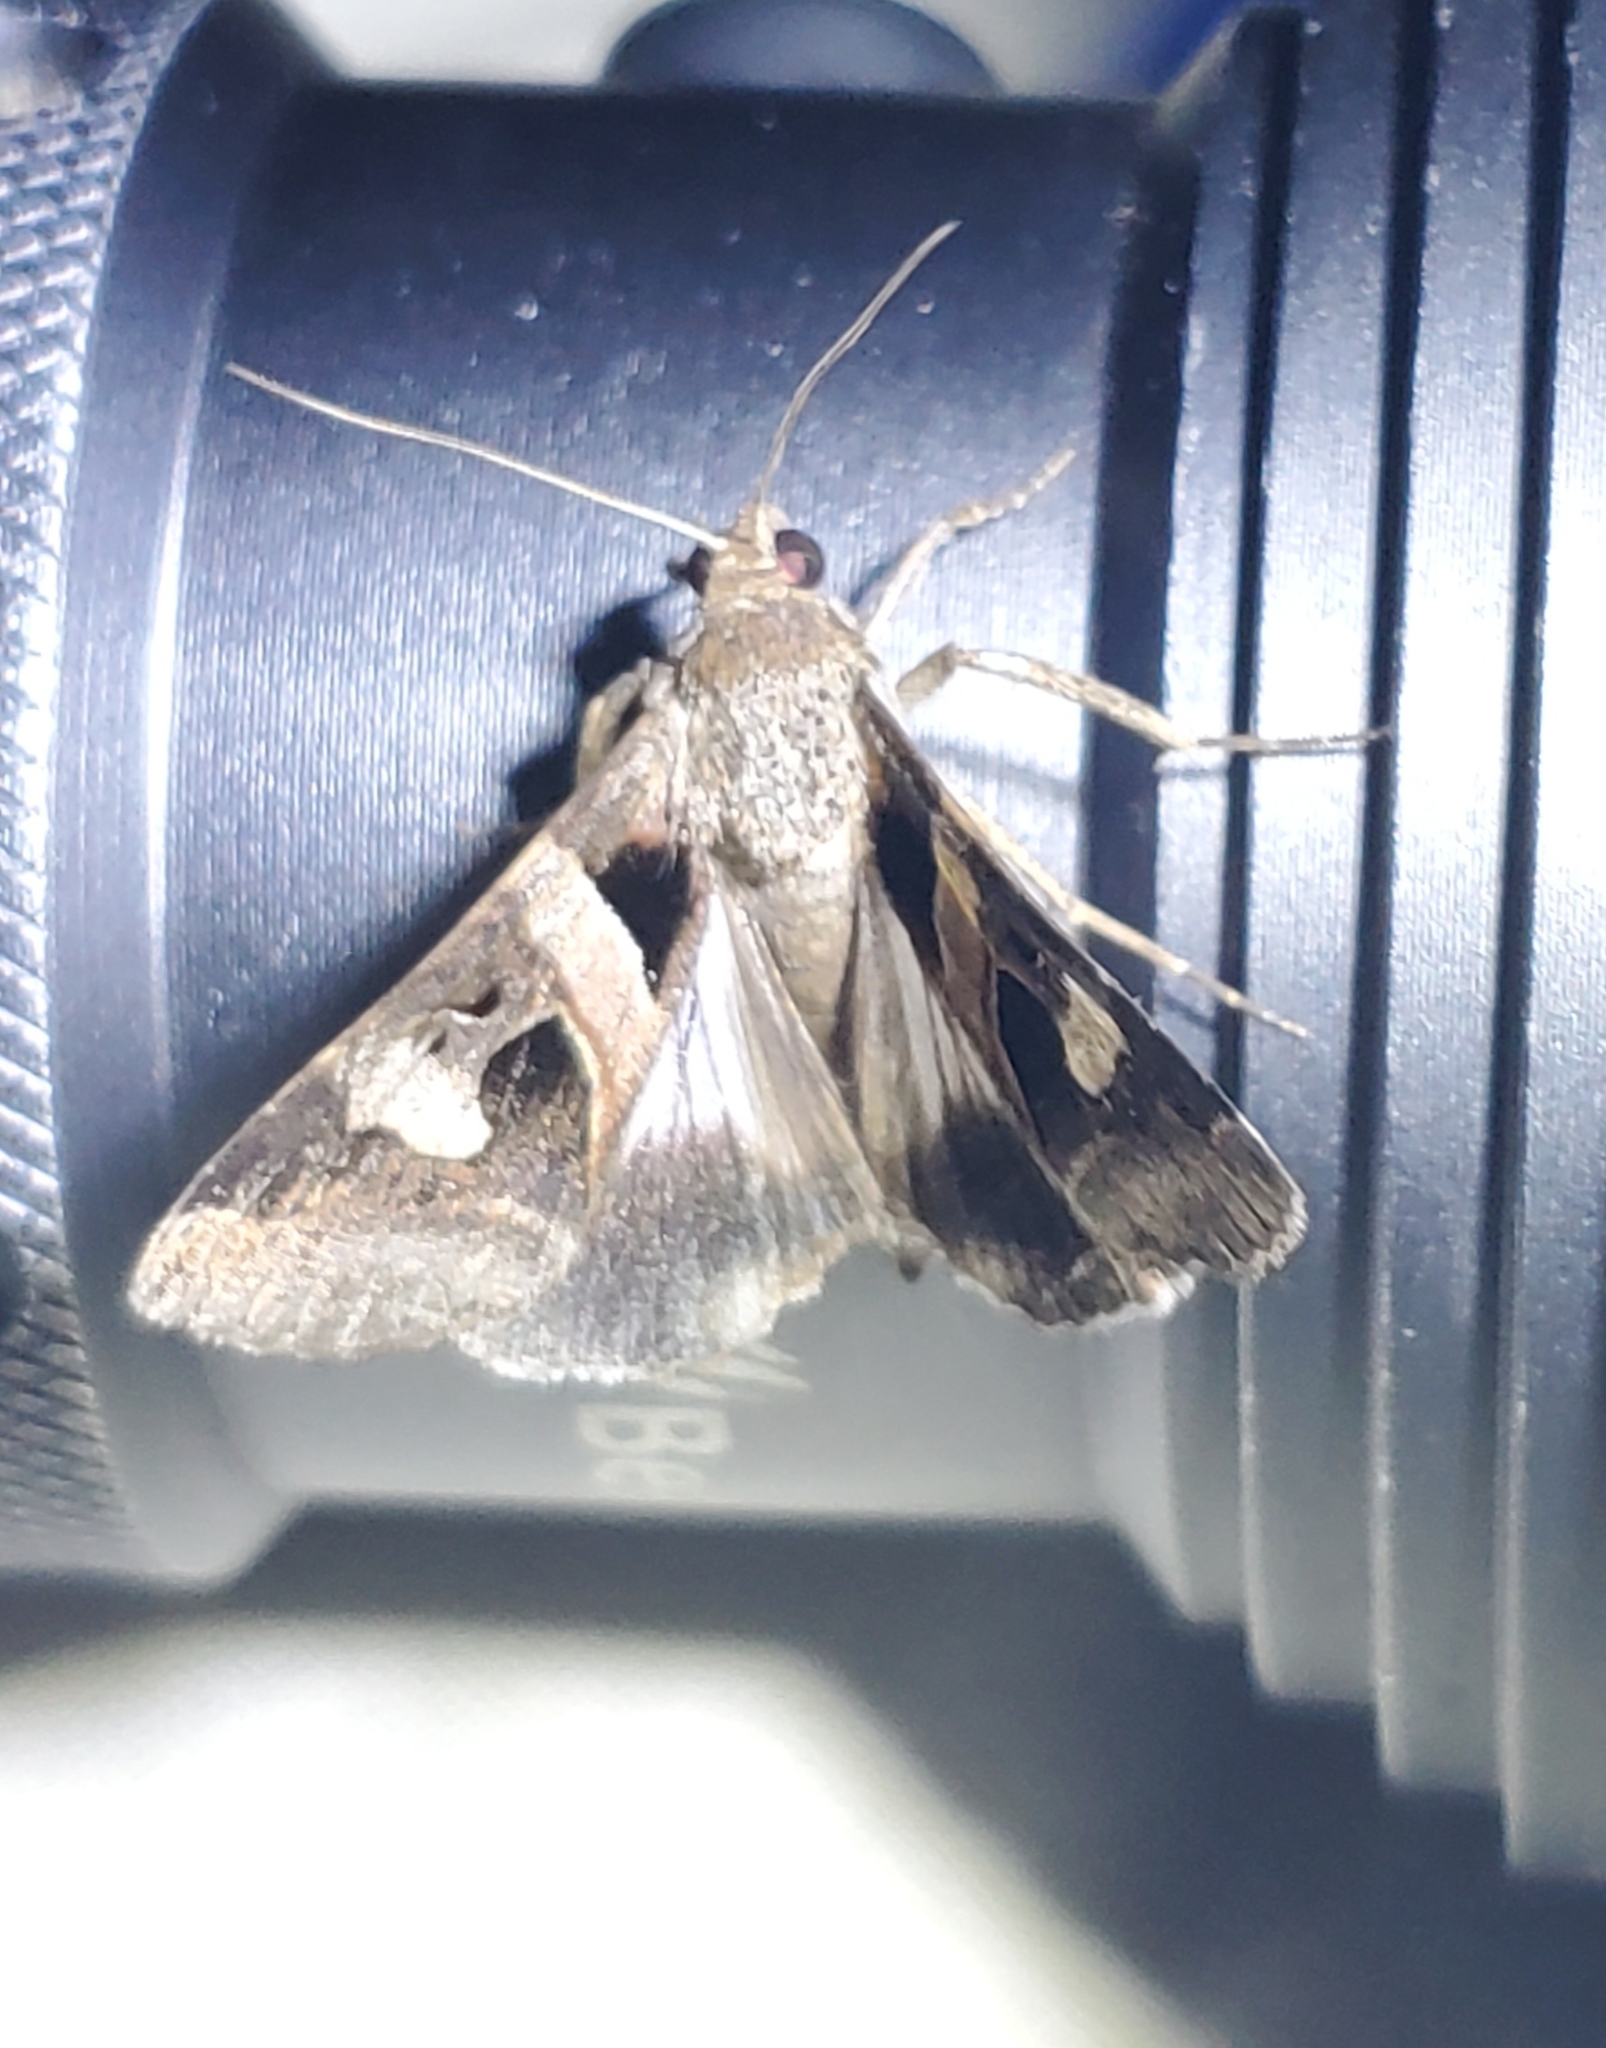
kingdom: Animalia
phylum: Arthropoda
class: Insecta
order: Lepidoptera
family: Erebidae
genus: Melipotis
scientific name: Melipotis florida
